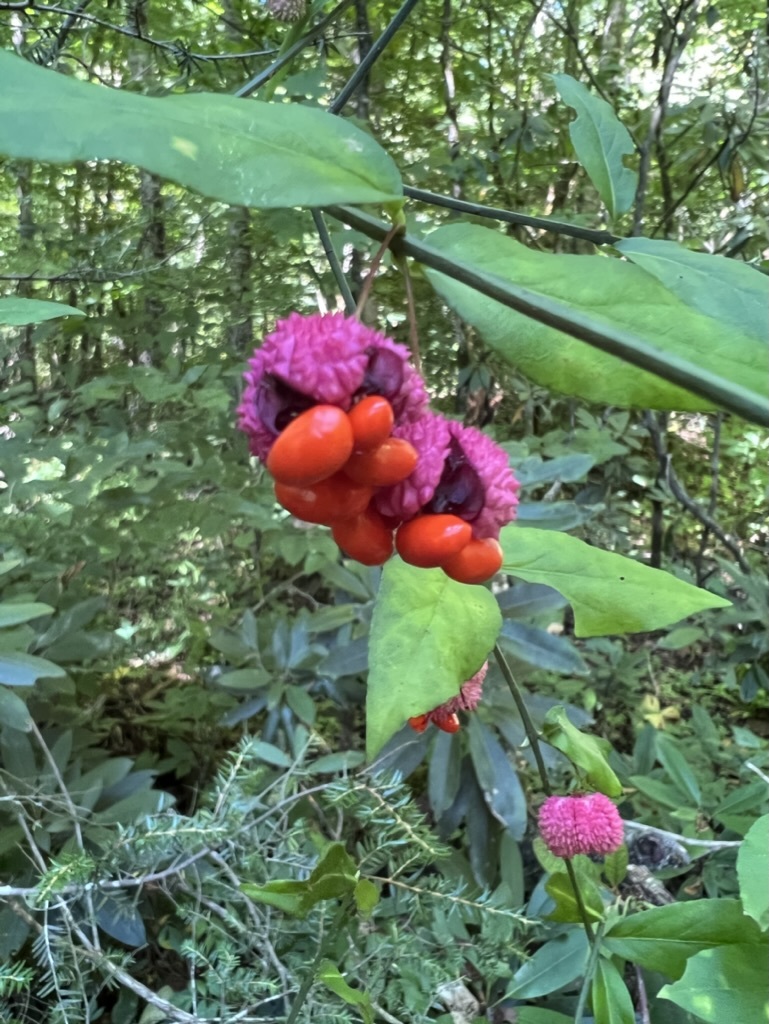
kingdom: Plantae
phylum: Tracheophyta
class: Magnoliopsida
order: Celastrales
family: Celastraceae
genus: Euonymus
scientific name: Euonymus americanus
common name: Bursting-heart
